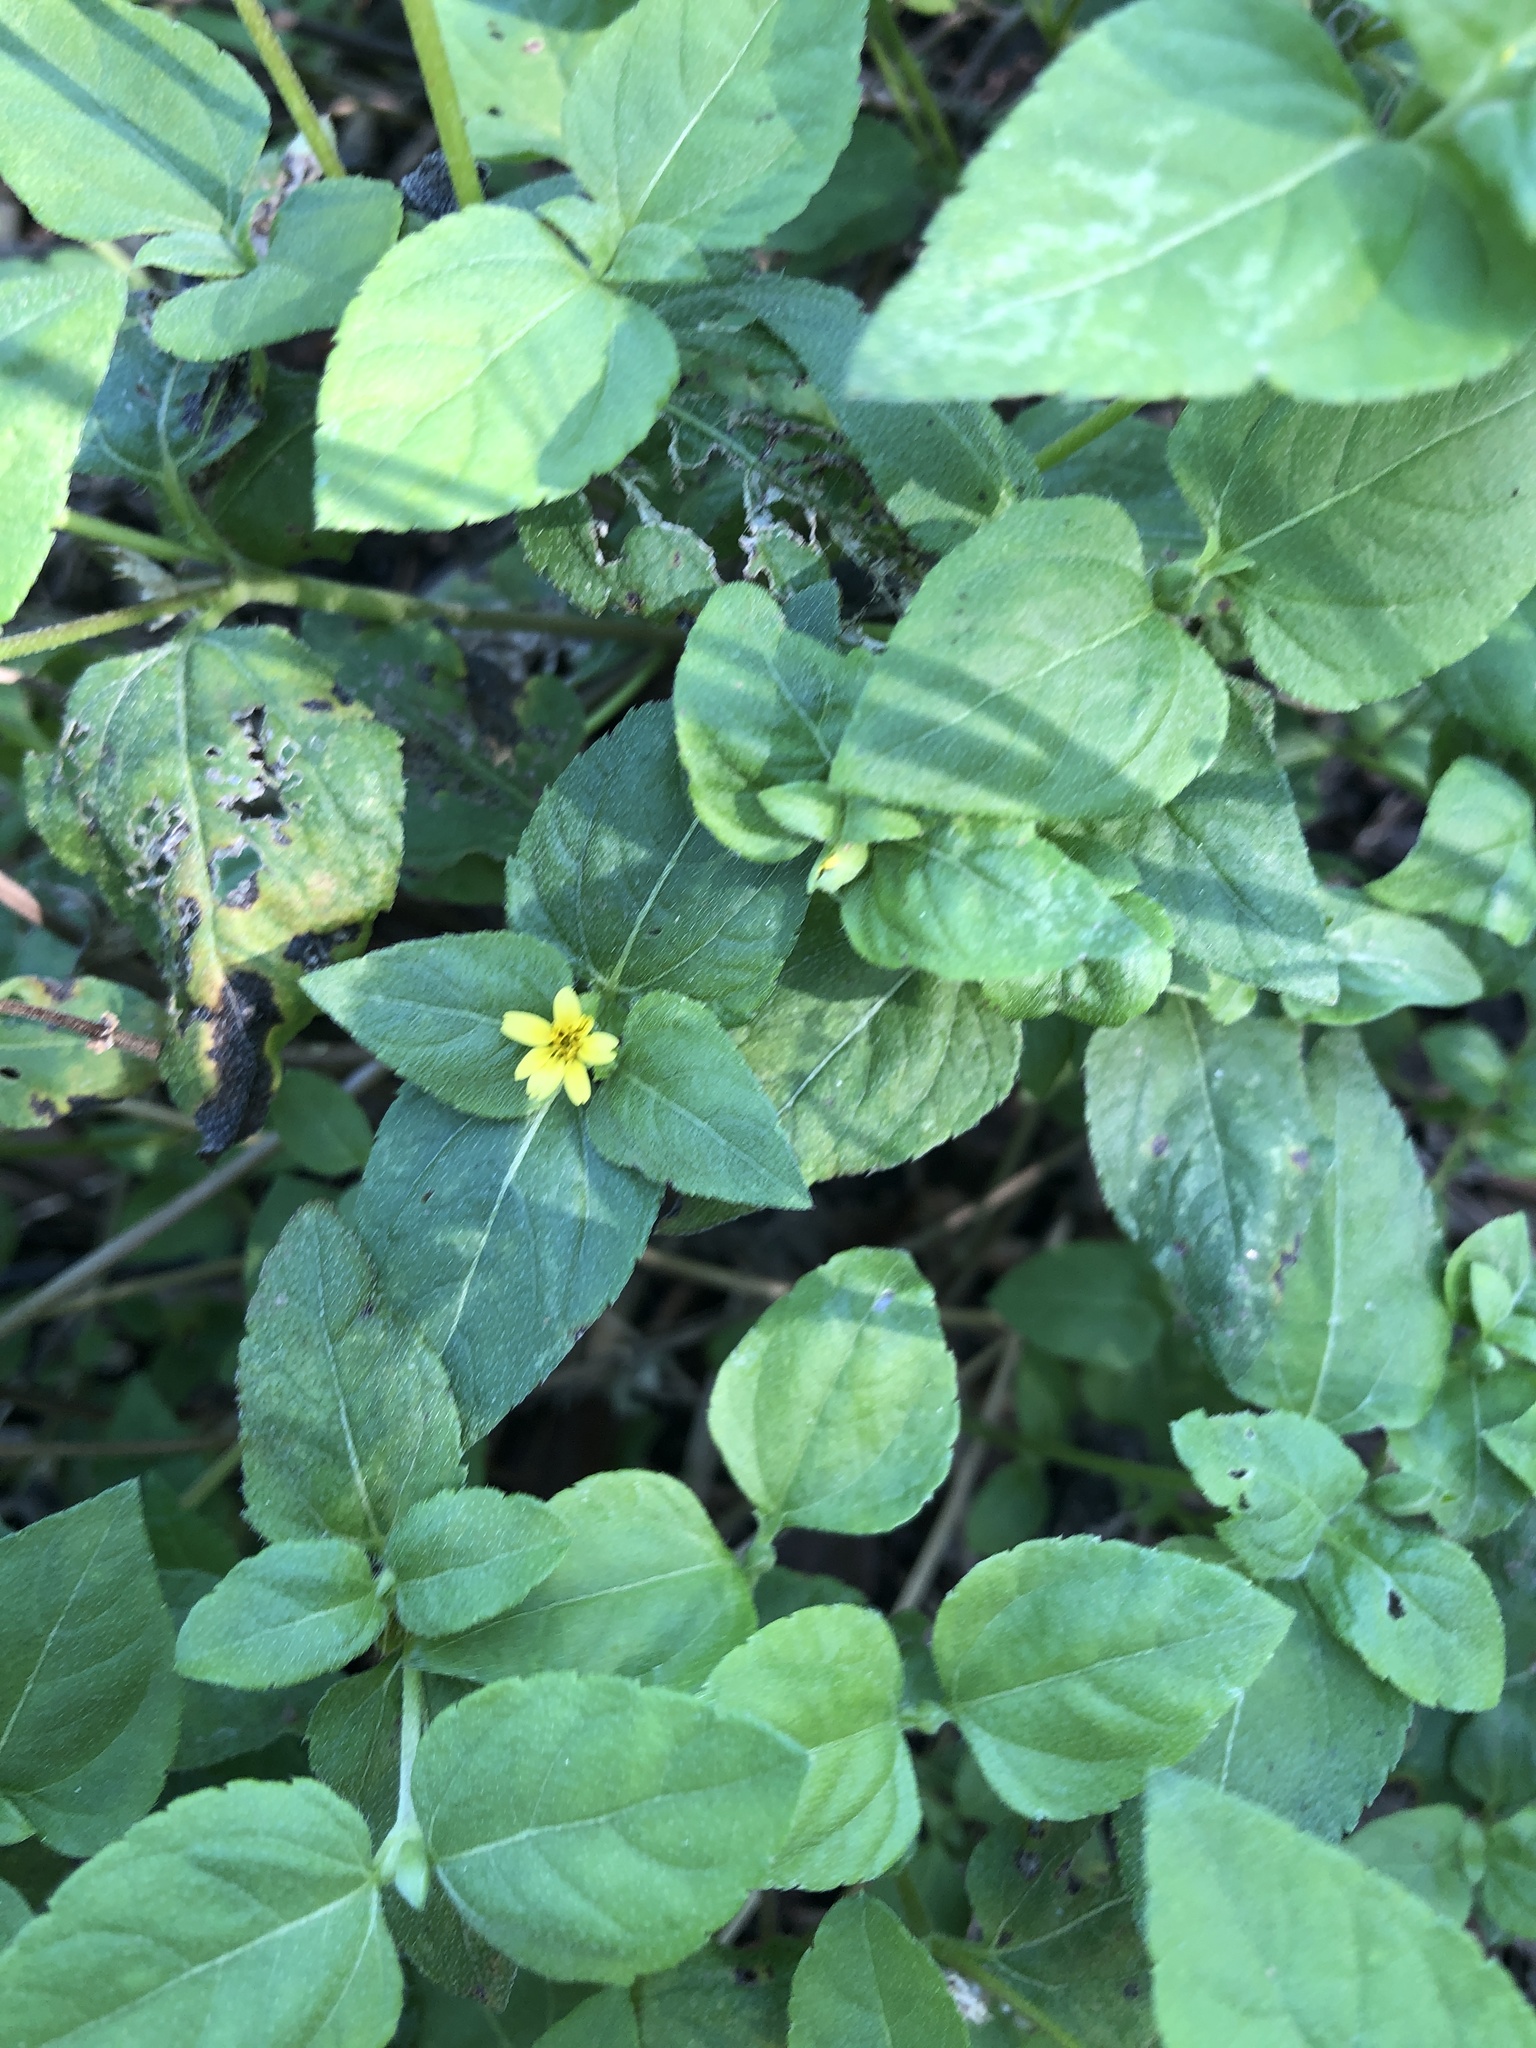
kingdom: Plantae
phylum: Tracheophyta
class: Magnoliopsida
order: Asterales
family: Asteraceae
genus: Calyptocarpus
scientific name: Calyptocarpus vialis
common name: Straggler daisy
